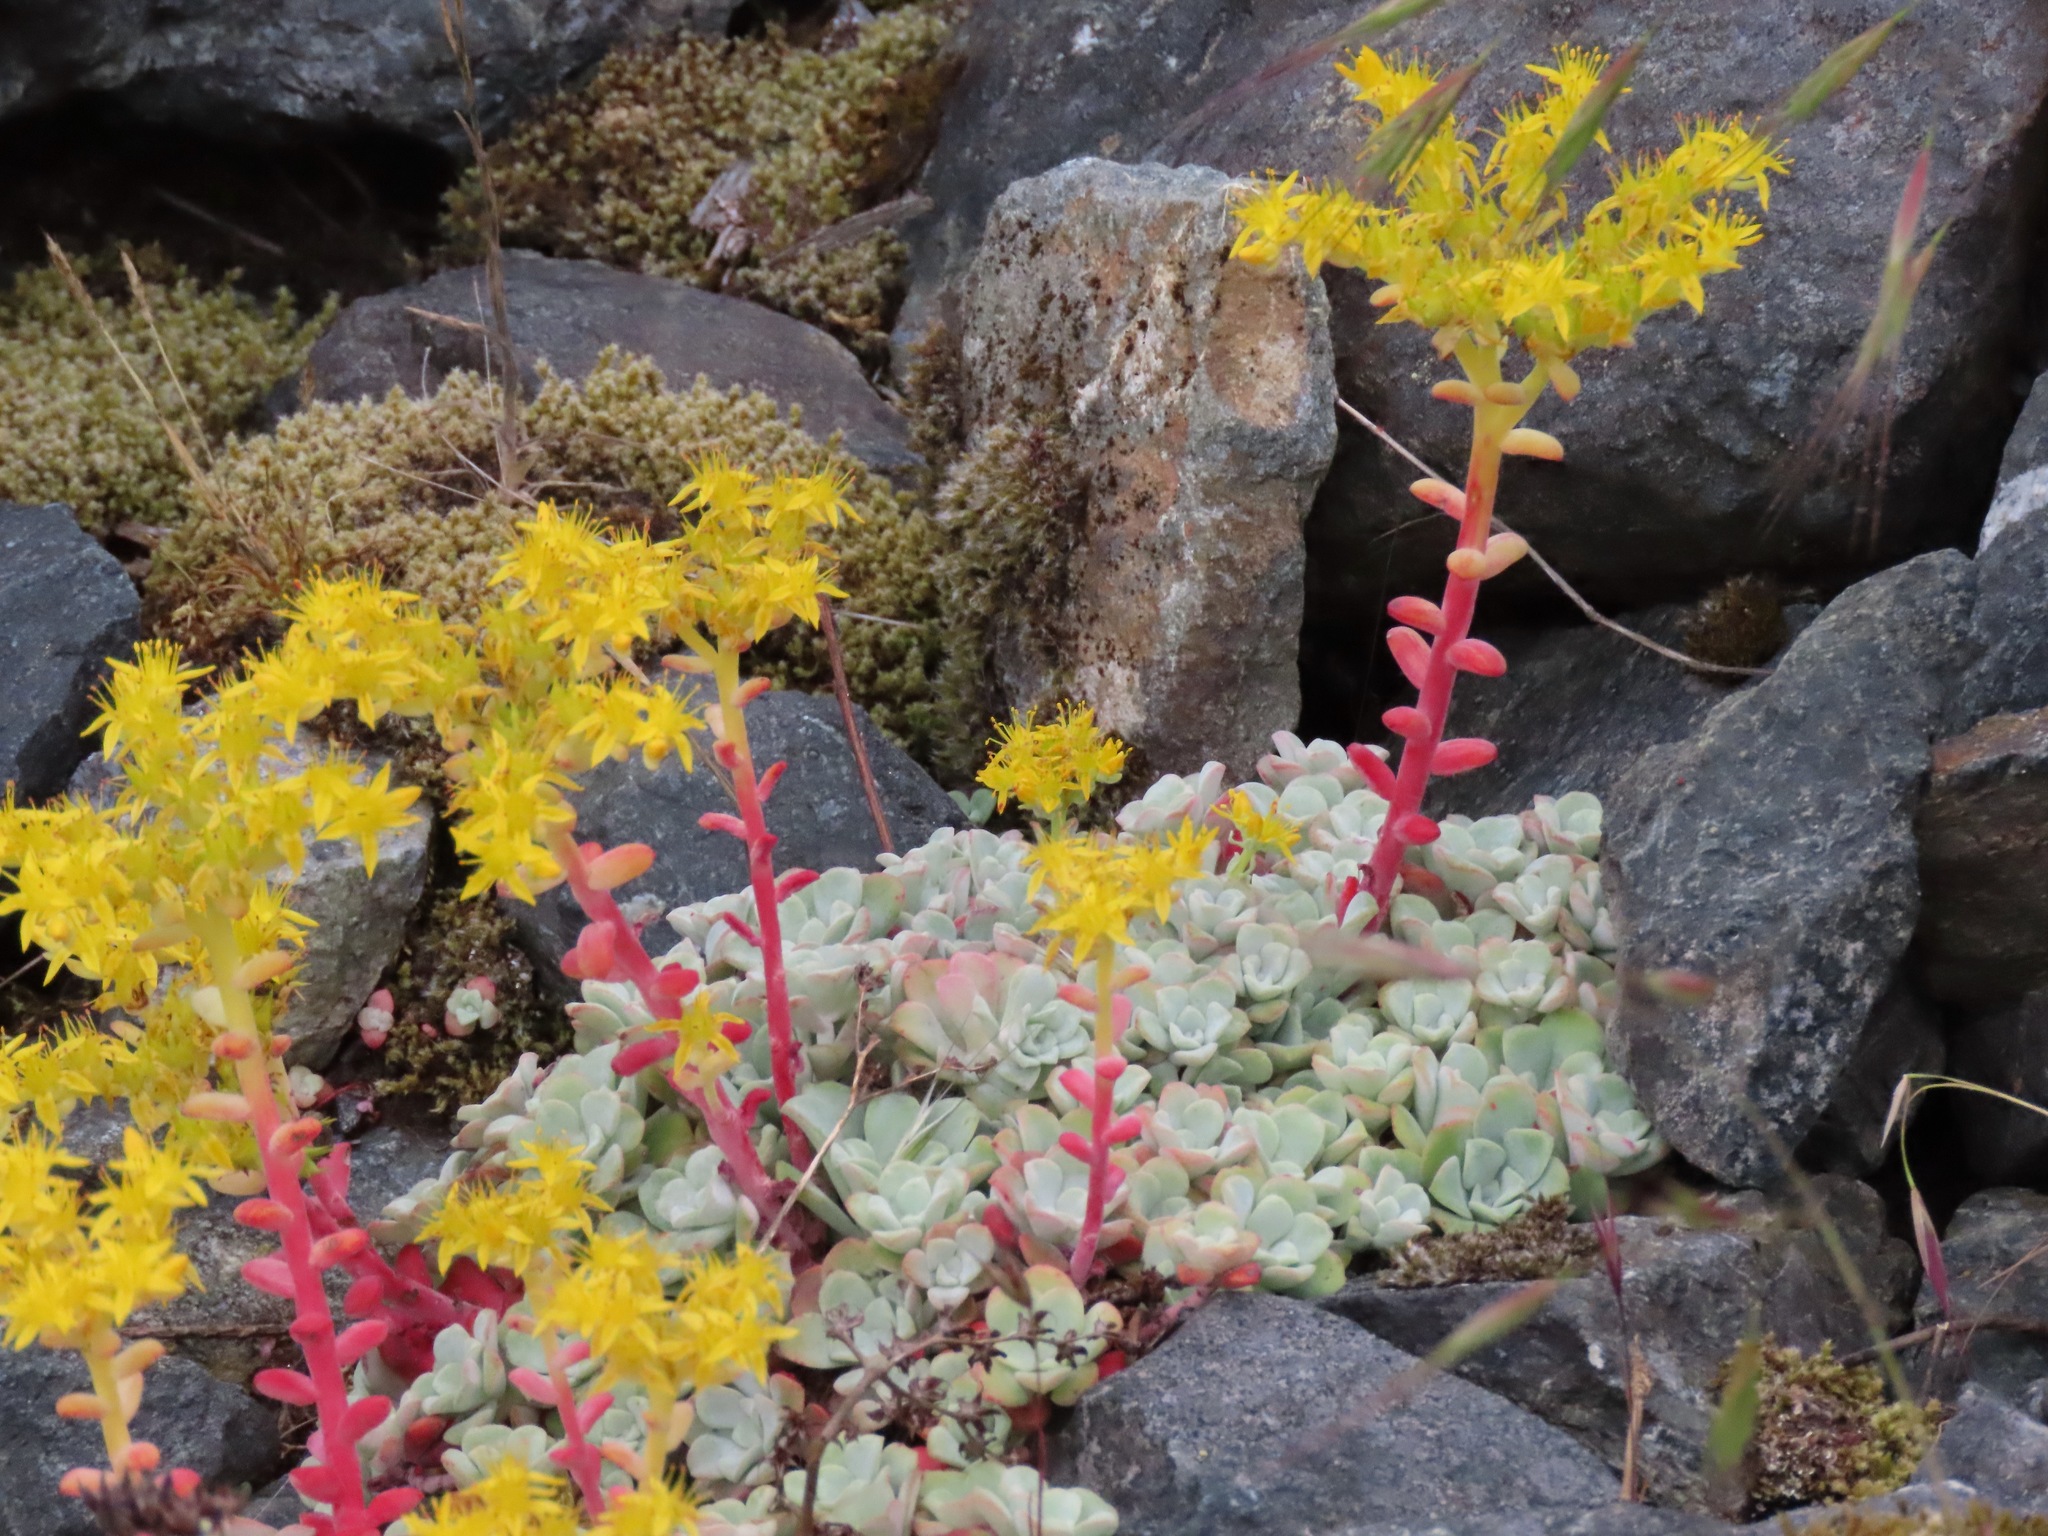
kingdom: Plantae
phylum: Tracheophyta
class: Magnoliopsida
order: Saxifragales
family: Crassulaceae
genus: Sedum
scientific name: Sedum spathulifolium
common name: Colorado stonecrop
